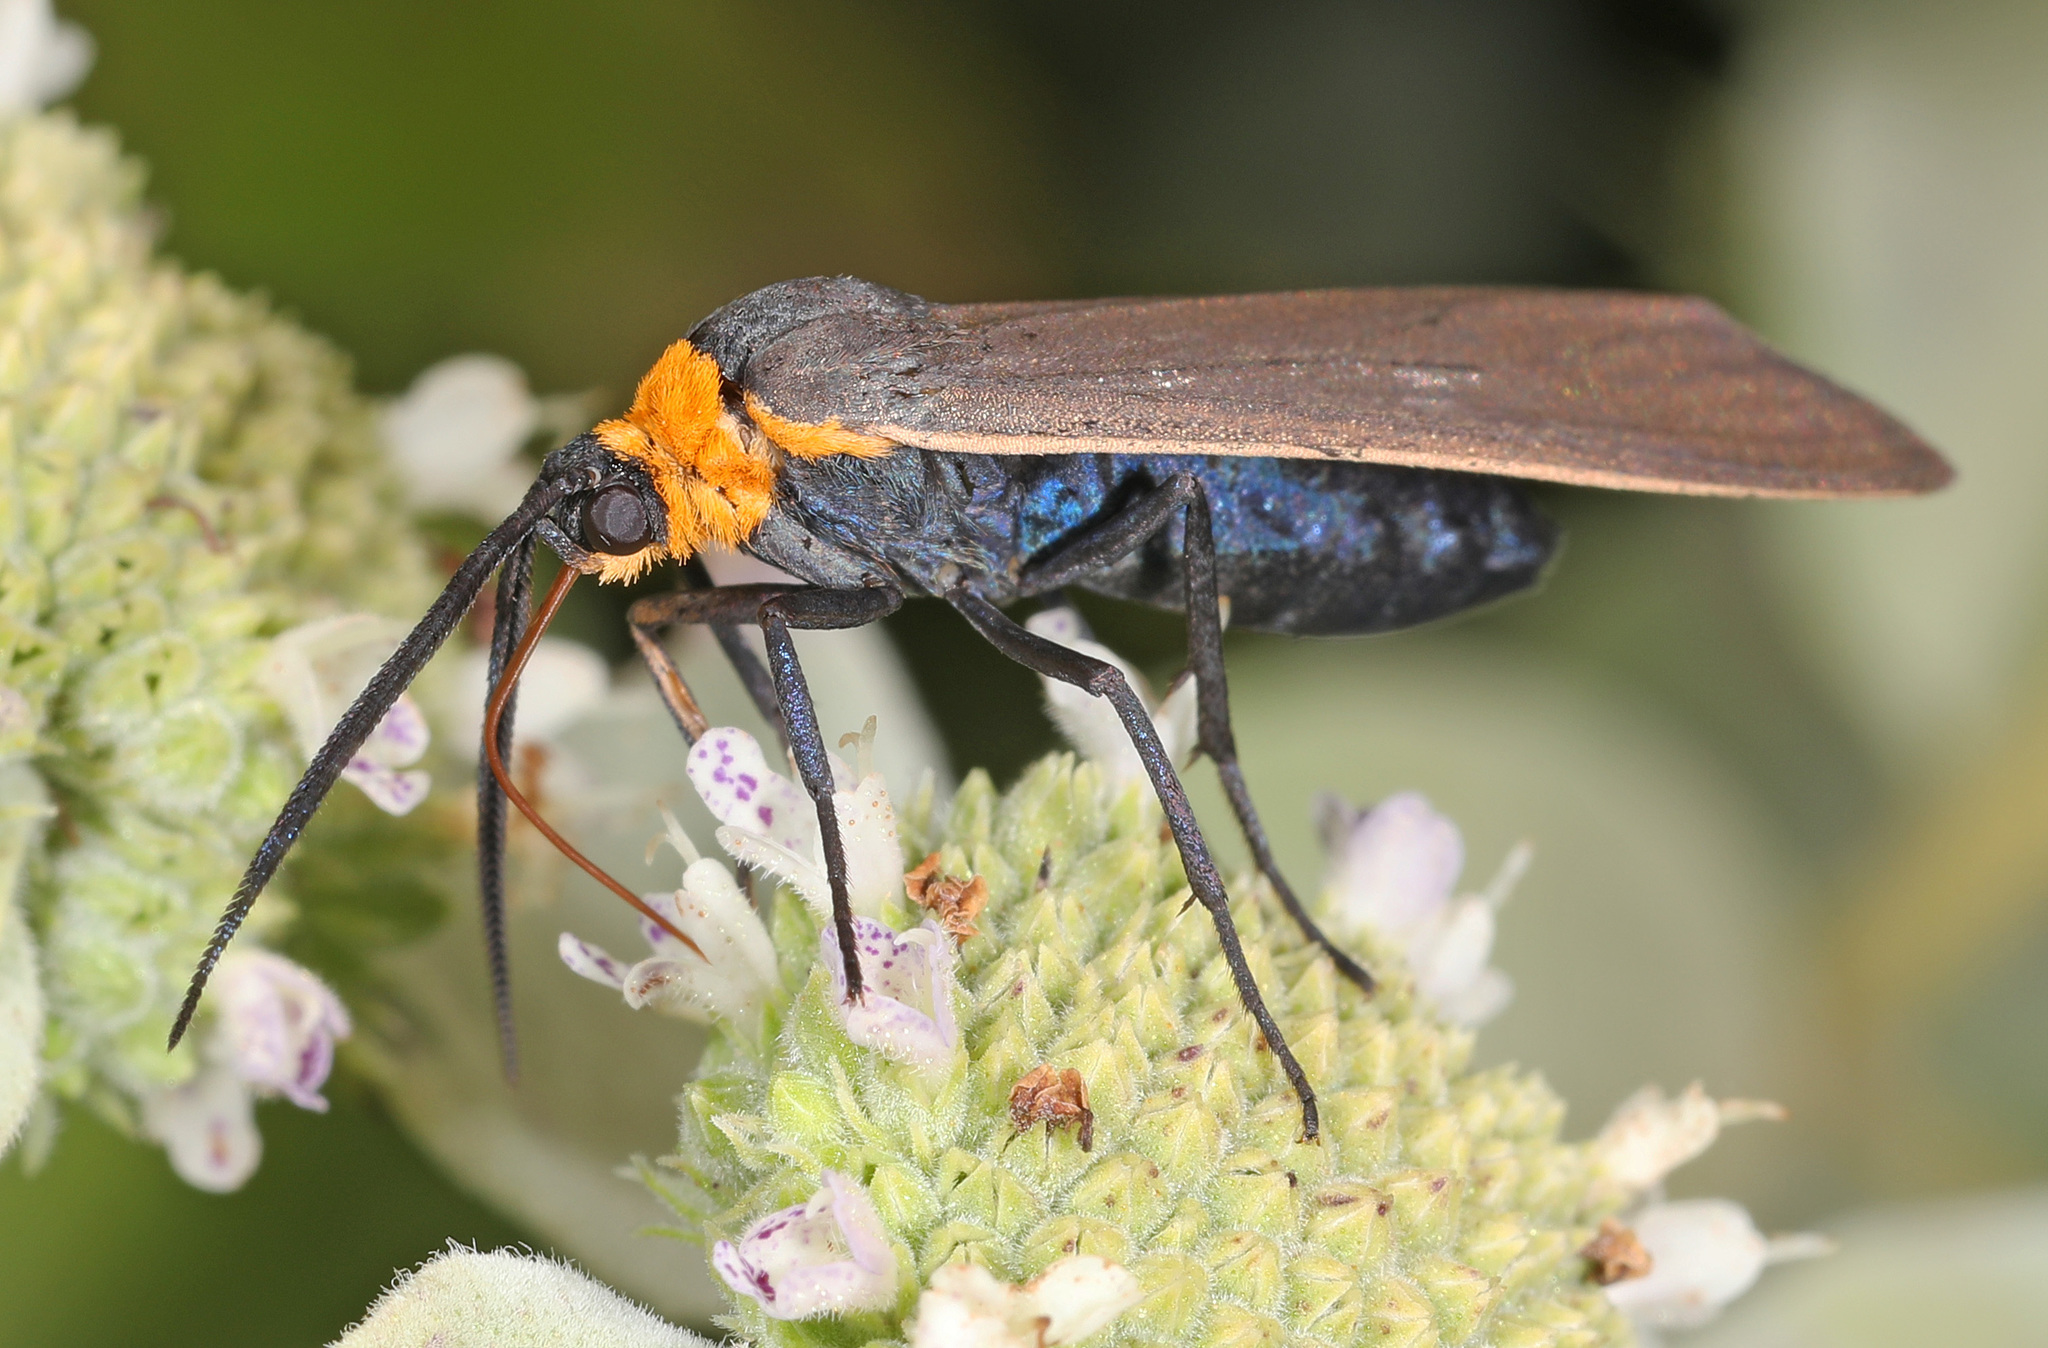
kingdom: Animalia
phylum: Arthropoda
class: Insecta
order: Lepidoptera
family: Erebidae
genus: Cisseps
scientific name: Cisseps fulvicollis
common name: Yellow-collared scape moth
